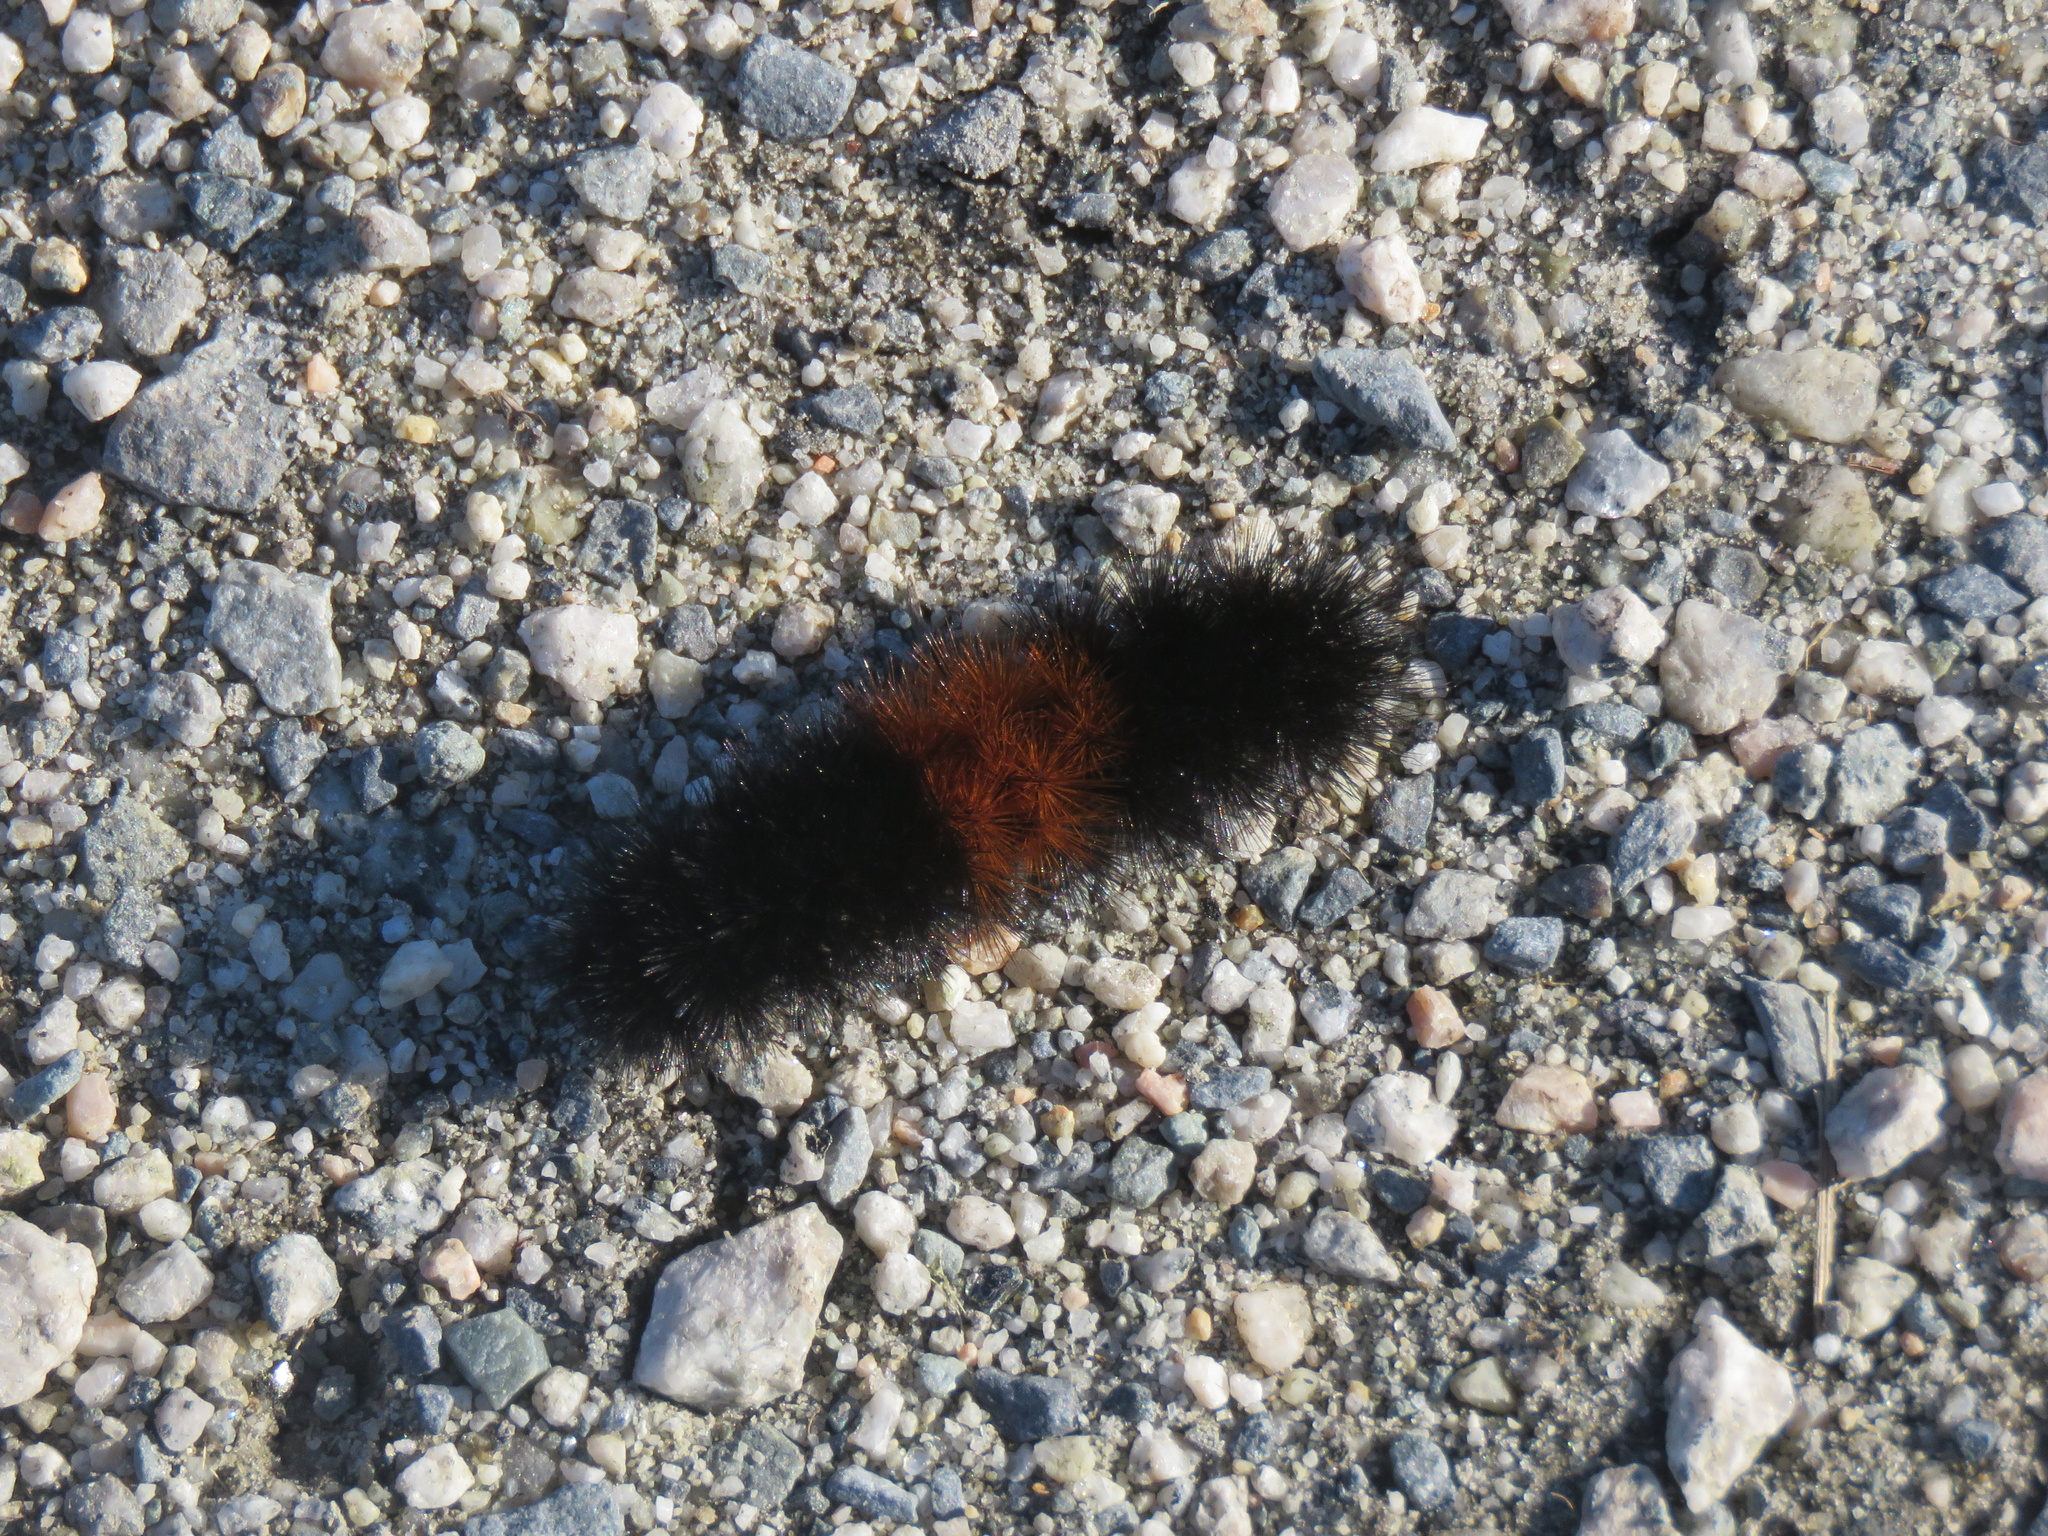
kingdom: Animalia
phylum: Arthropoda
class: Insecta
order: Lepidoptera
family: Erebidae
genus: Pyrrharctia
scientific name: Pyrrharctia isabella
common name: Isabella tiger moth
